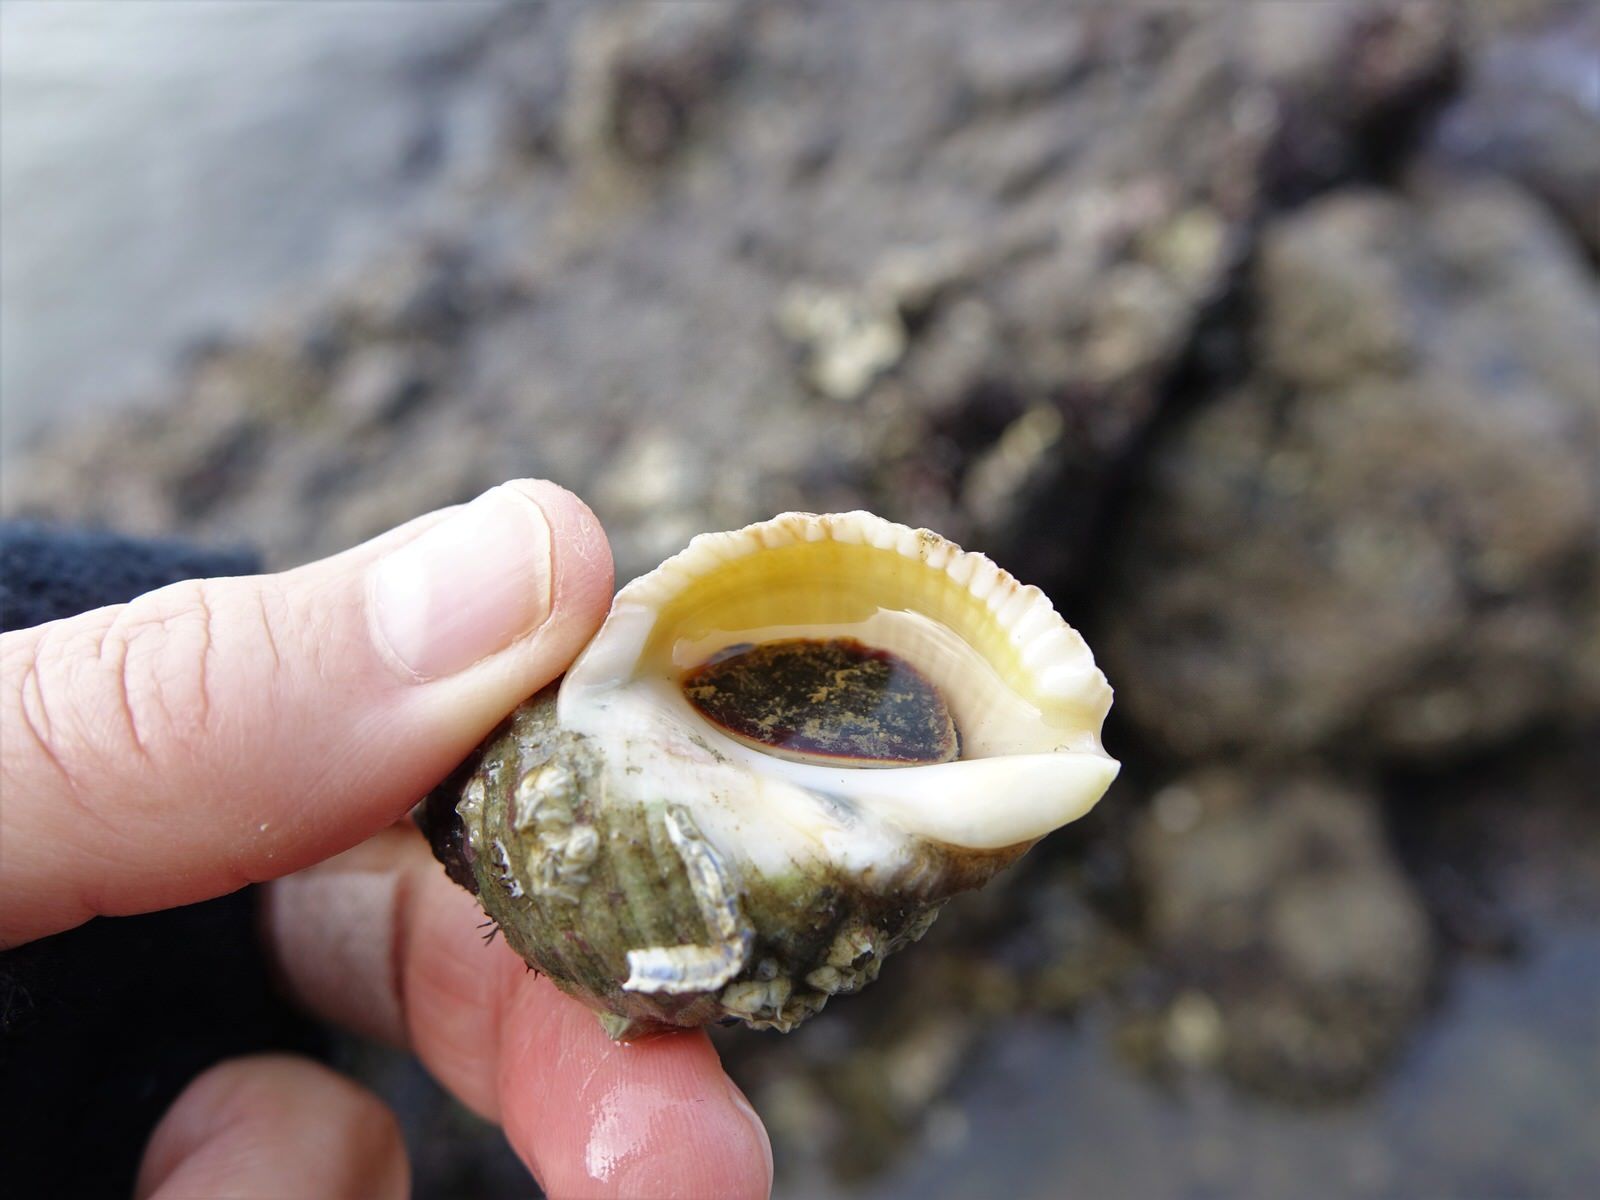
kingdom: Animalia
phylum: Mollusca
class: Gastropoda
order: Neogastropoda
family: Muricidae
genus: Dicathais
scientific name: Dicathais orbita
